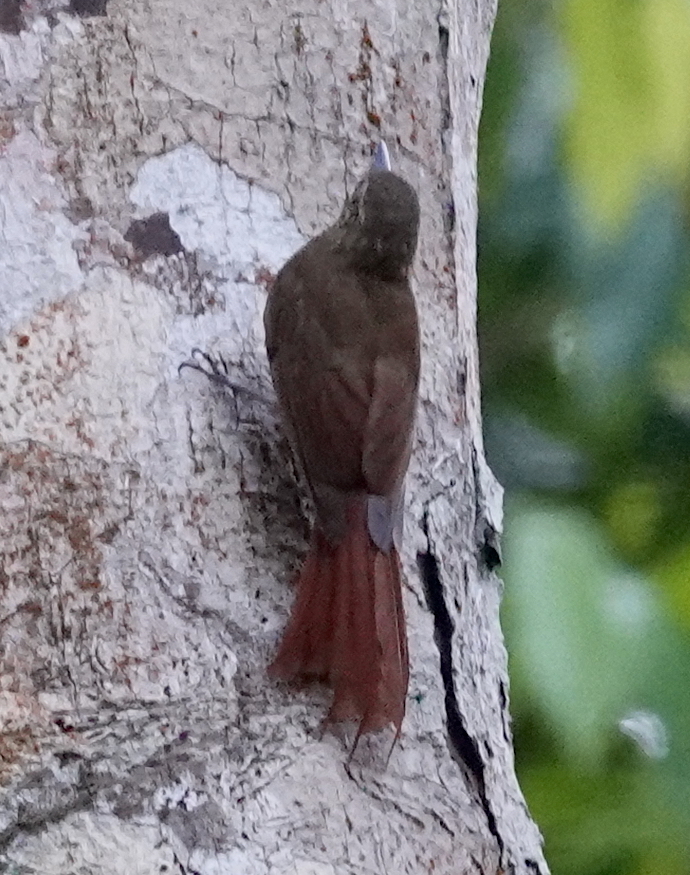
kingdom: Animalia
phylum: Chordata
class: Aves
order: Passeriformes
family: Furnariidae
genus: Glyphorynchus
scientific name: Glyphorynchus spirurus
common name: Wedge-billed woodcreeper
